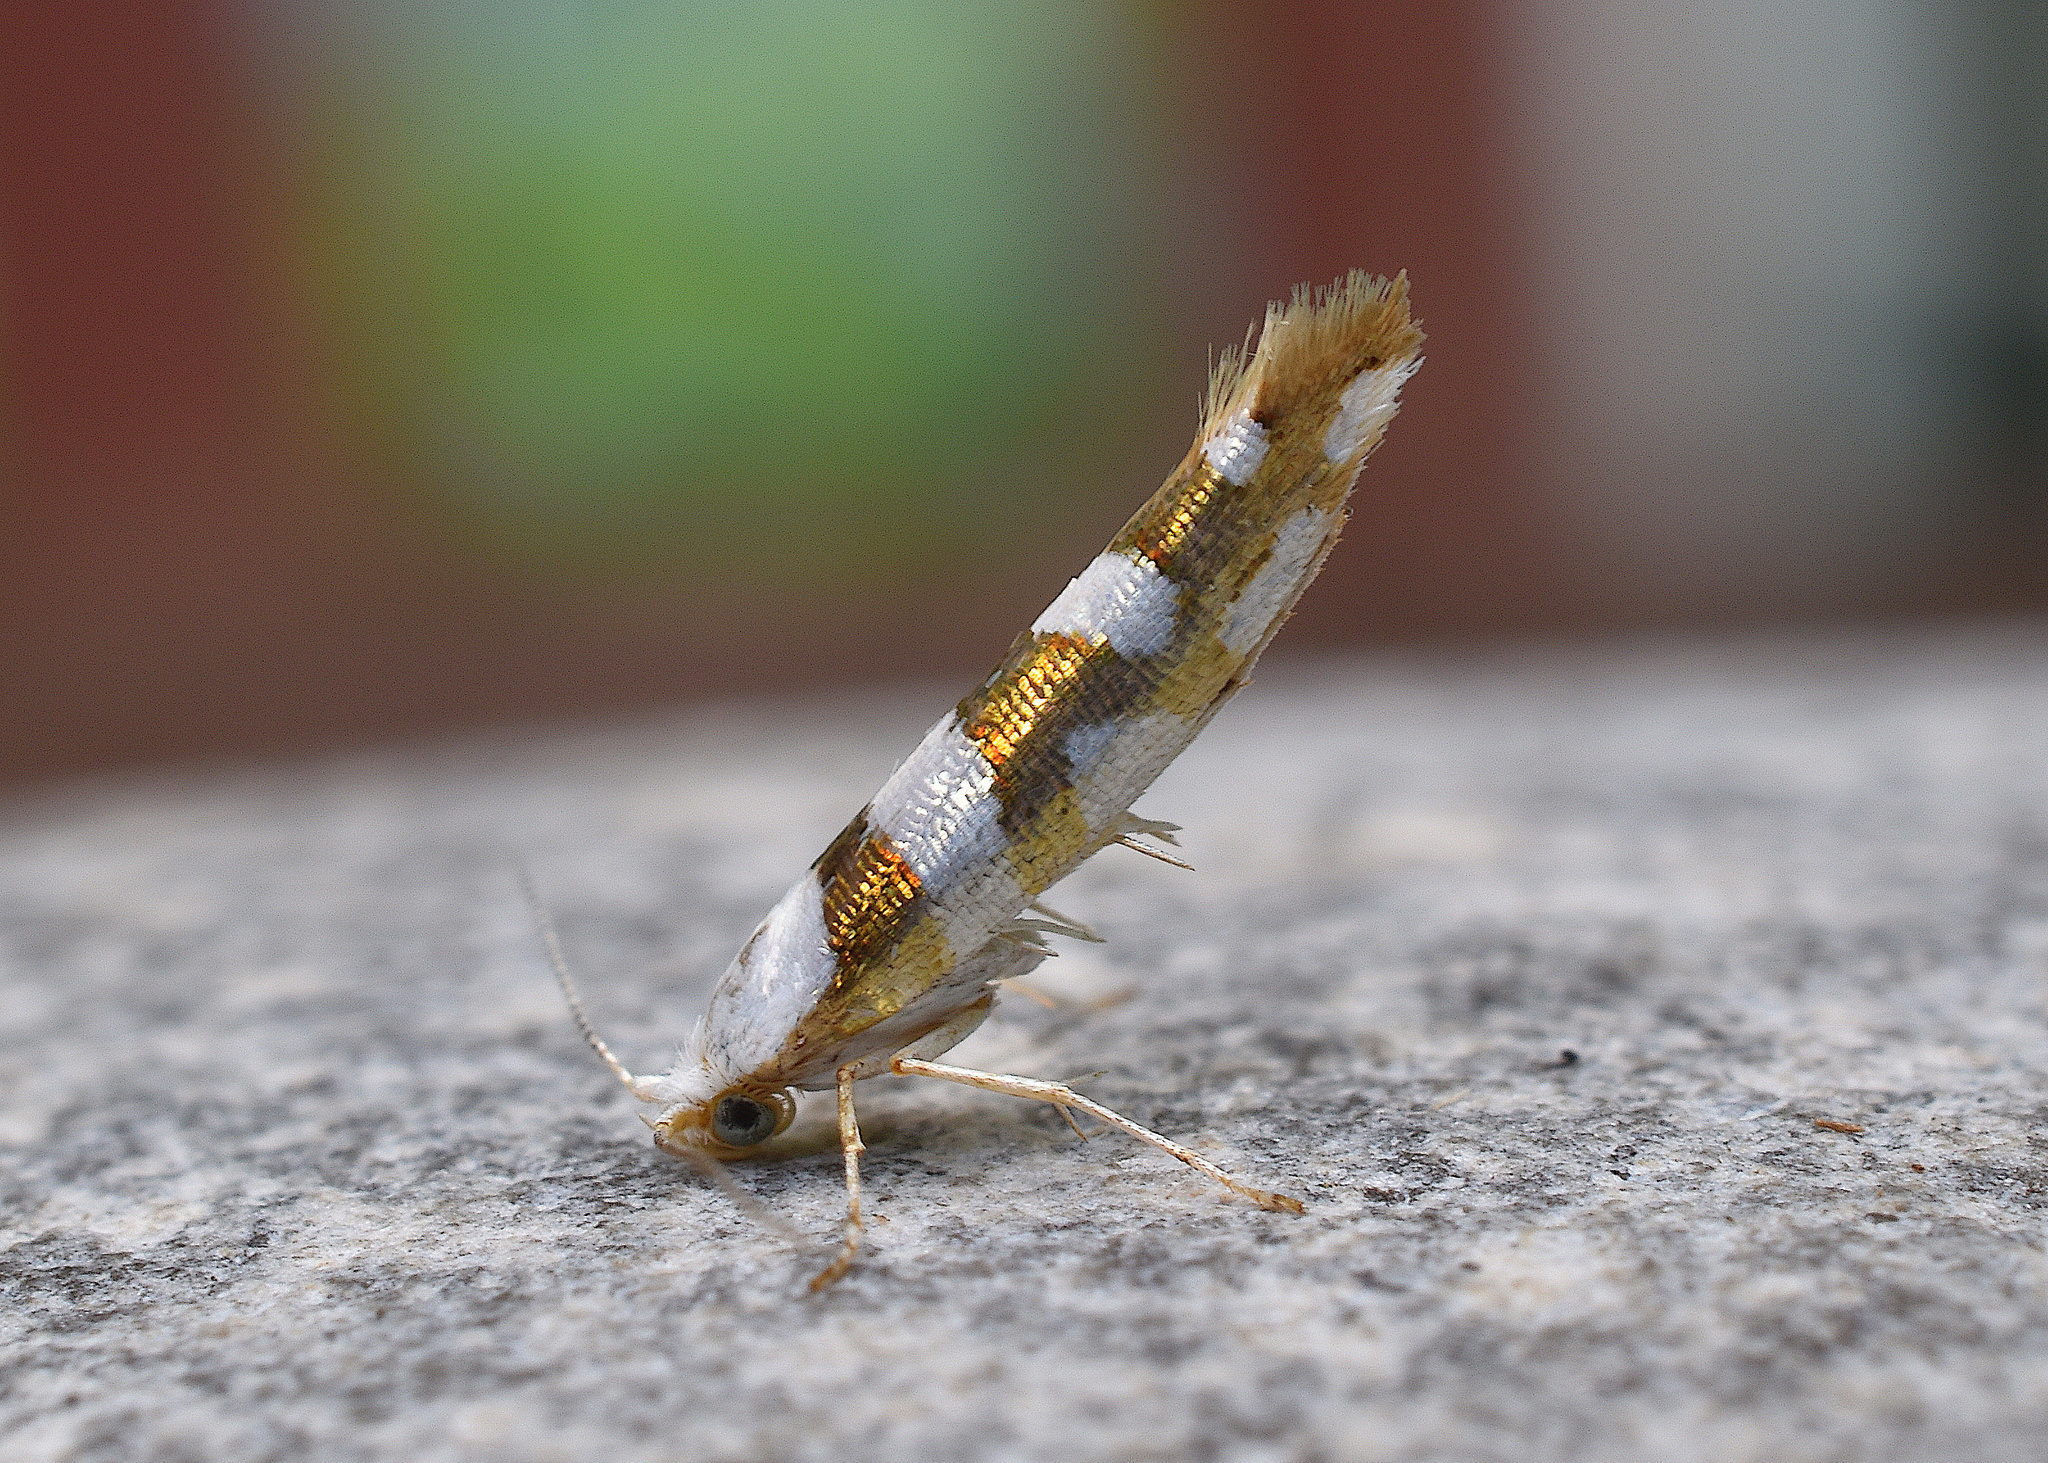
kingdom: Animalia
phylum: Arthropoda
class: Insecta
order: Lepidoptera
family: Argyresthiidae
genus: Argyresthia
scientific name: Argyresthia calliphanes
